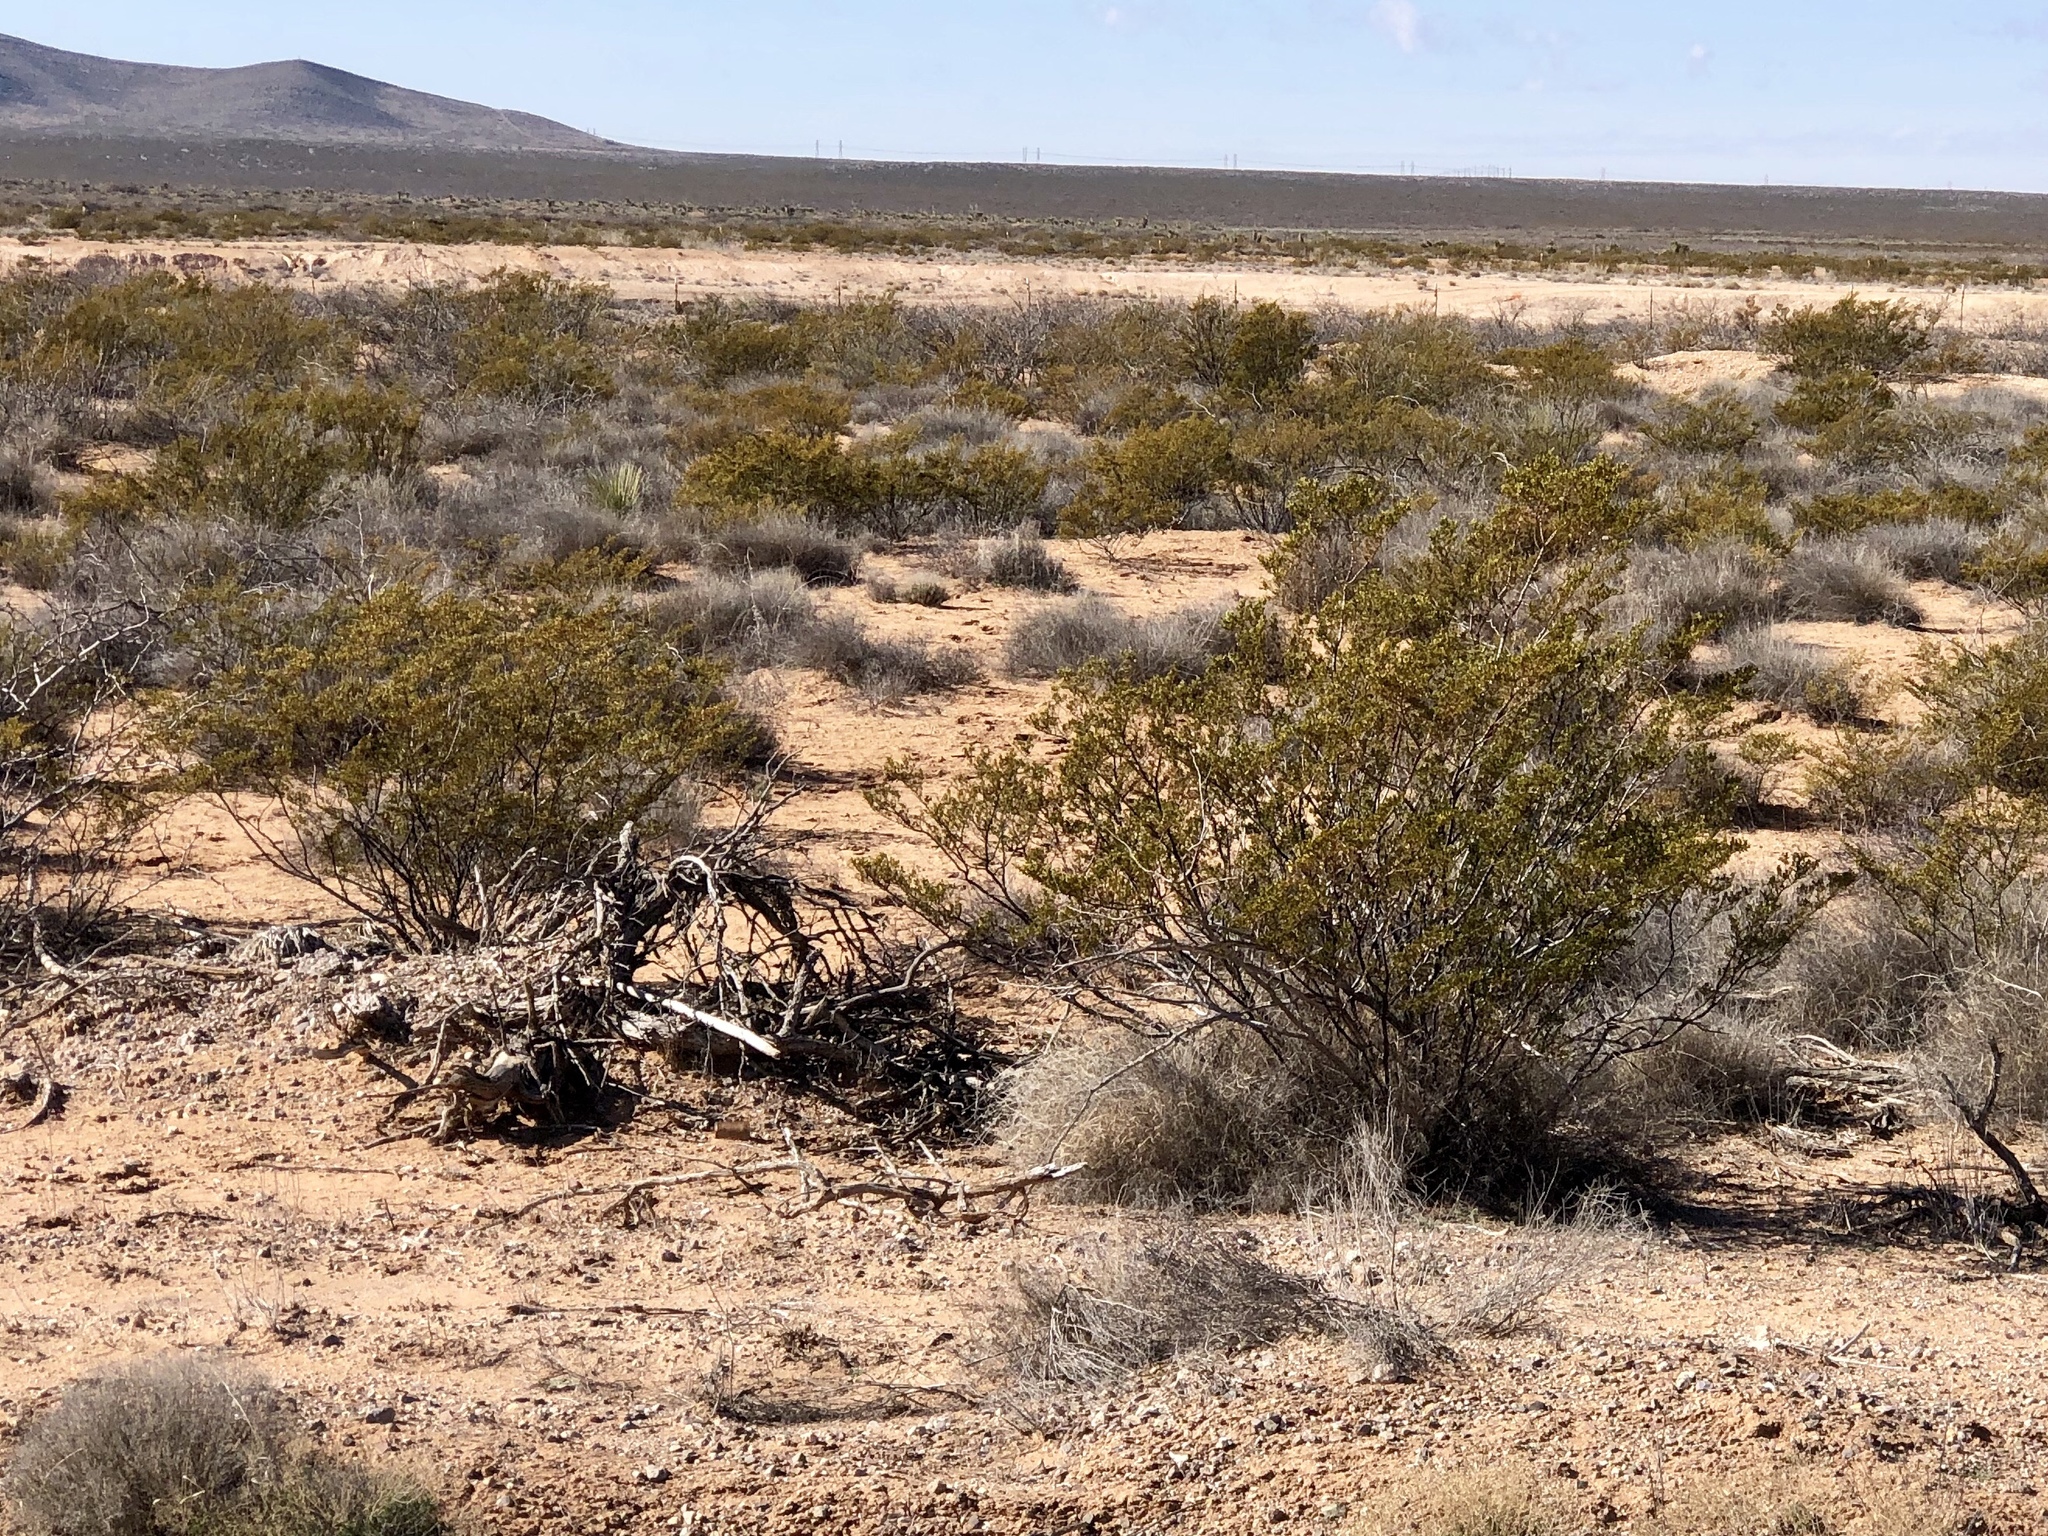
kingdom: Plantae
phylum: Tracheophyta
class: Magnoliopsida
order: Zygophyllales
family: Zygophyllaceae
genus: Larrea
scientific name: Larrea tridentata
